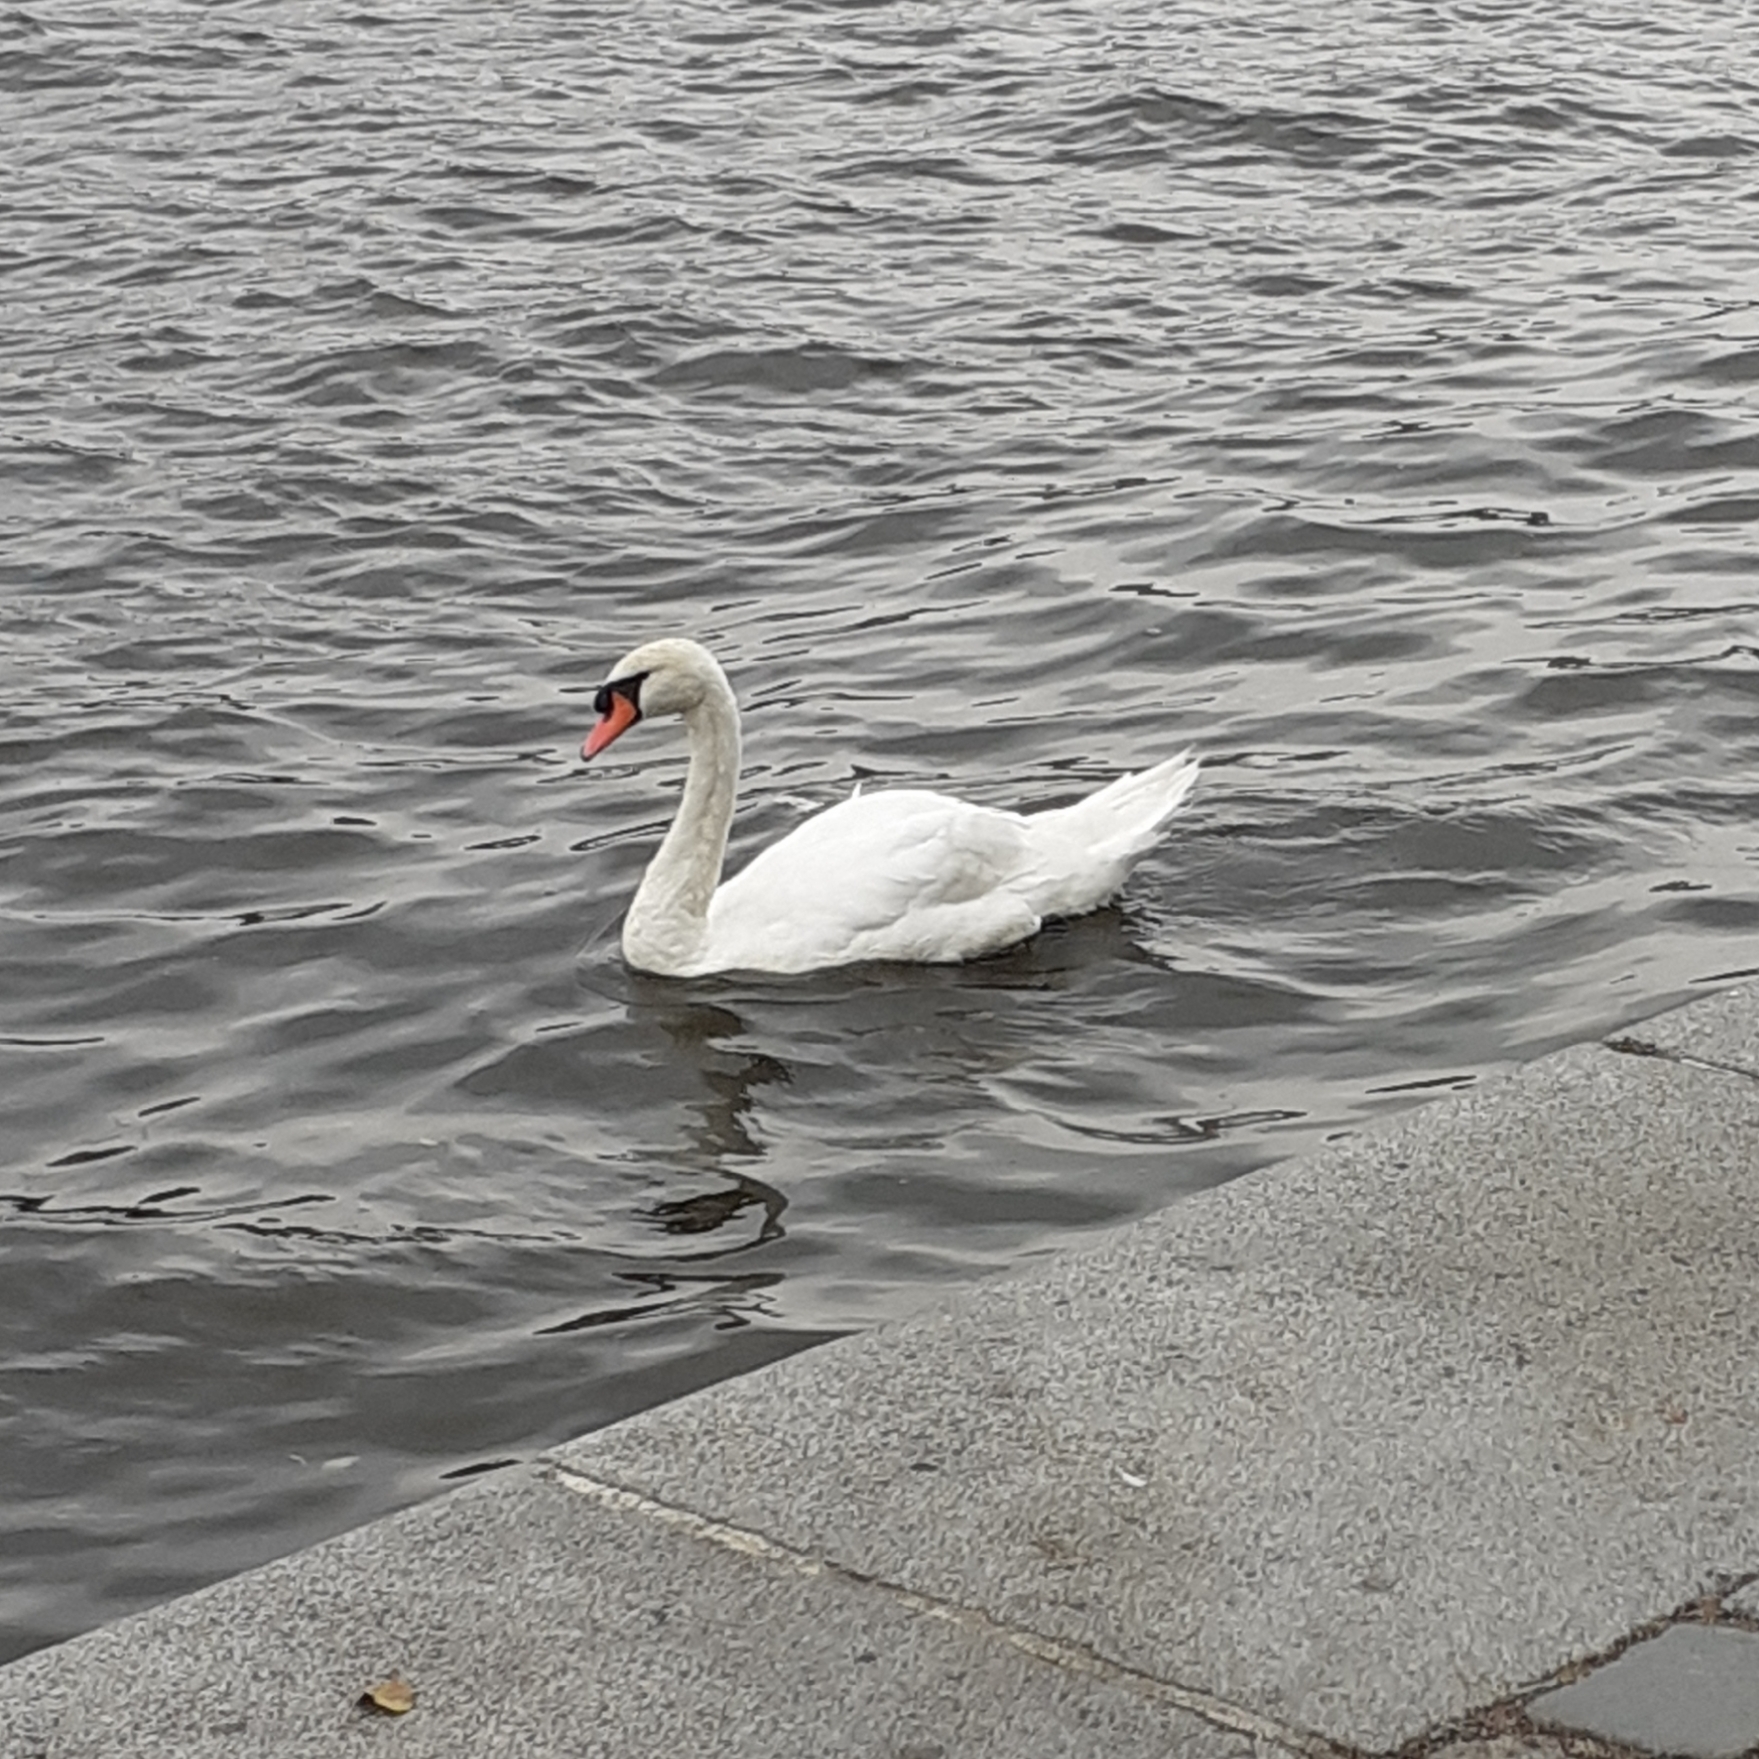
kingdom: Animalia
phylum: Chordata
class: Aves
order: Anseriformes
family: Anatidae
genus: Cygnus
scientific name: Cygnus olor
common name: Mute swan
